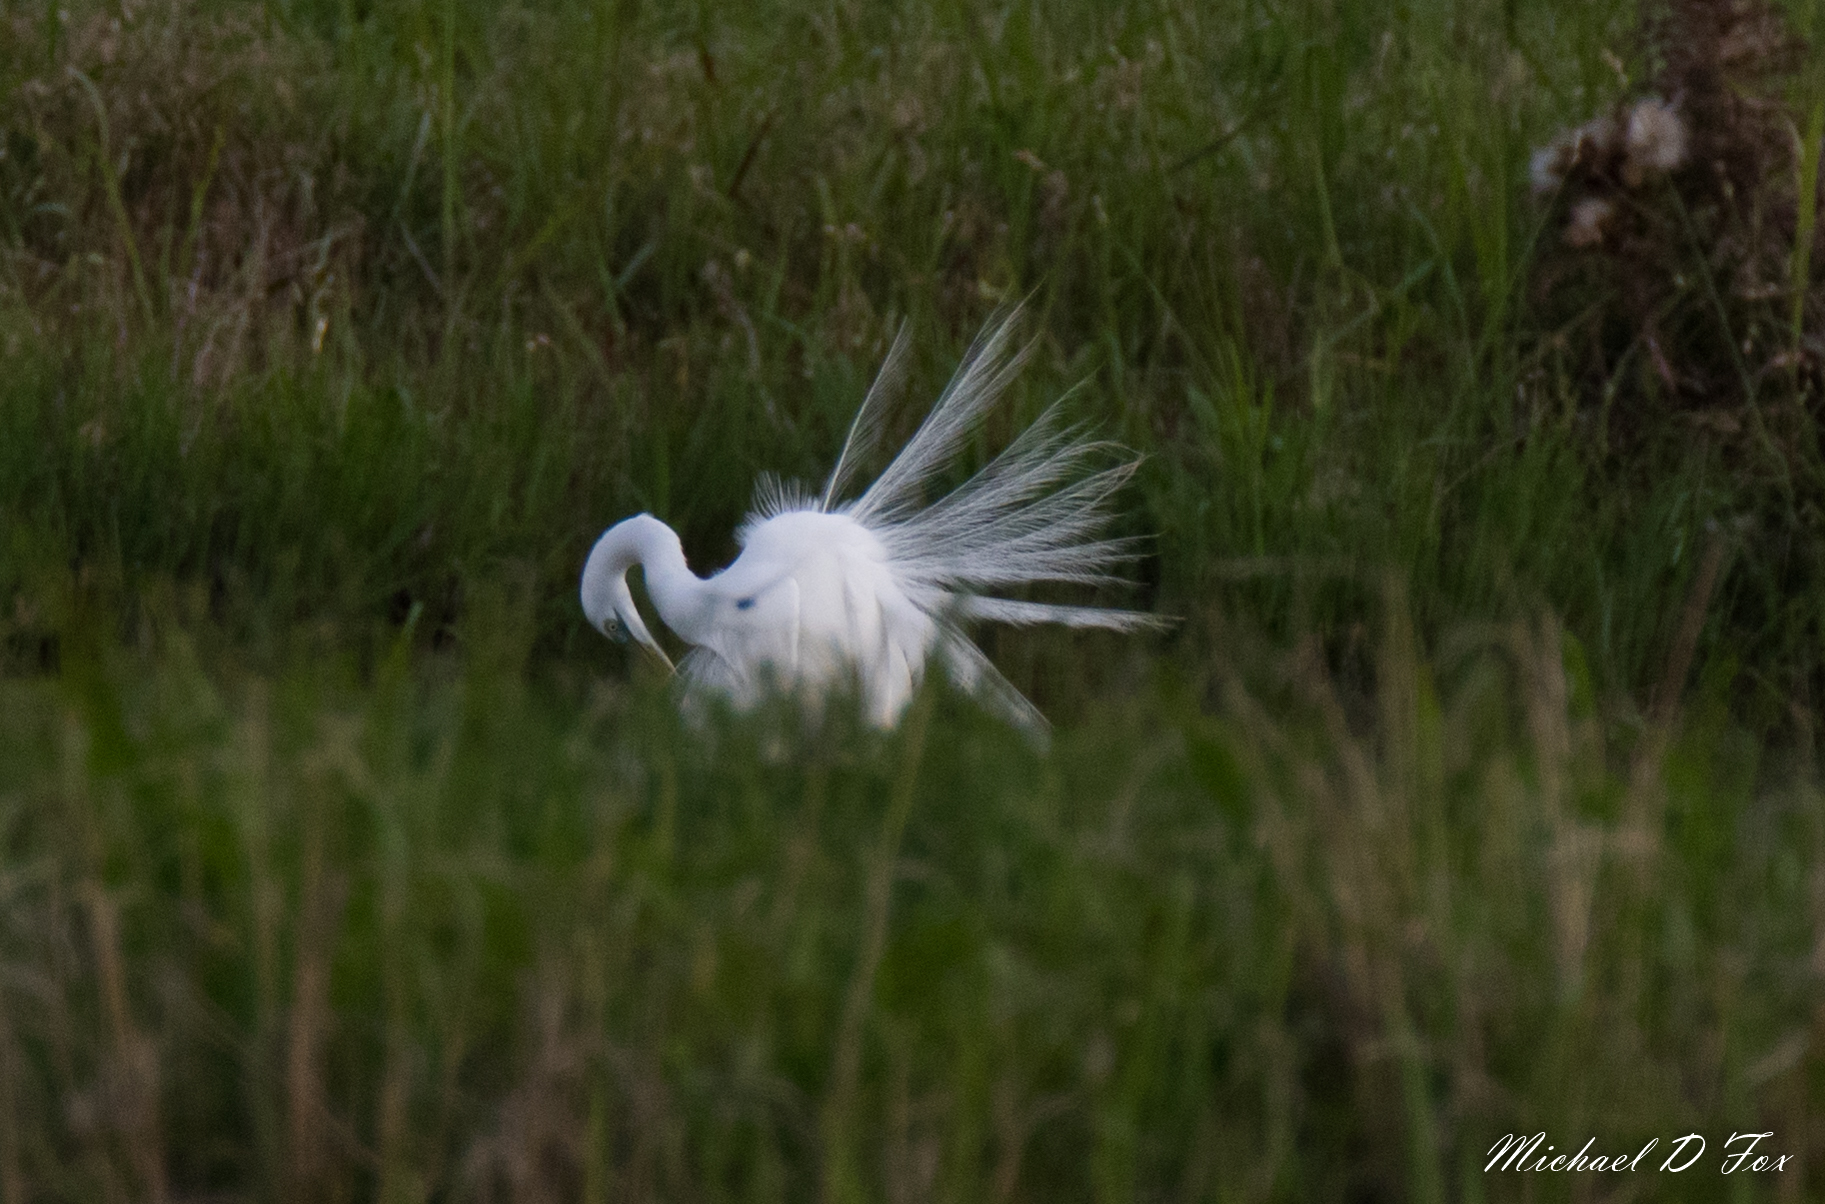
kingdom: Animalia
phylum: Chordata
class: Aves
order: Pelecaniformes
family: Ardeidae
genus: Ardea
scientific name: Ardea alba
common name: Great egret
